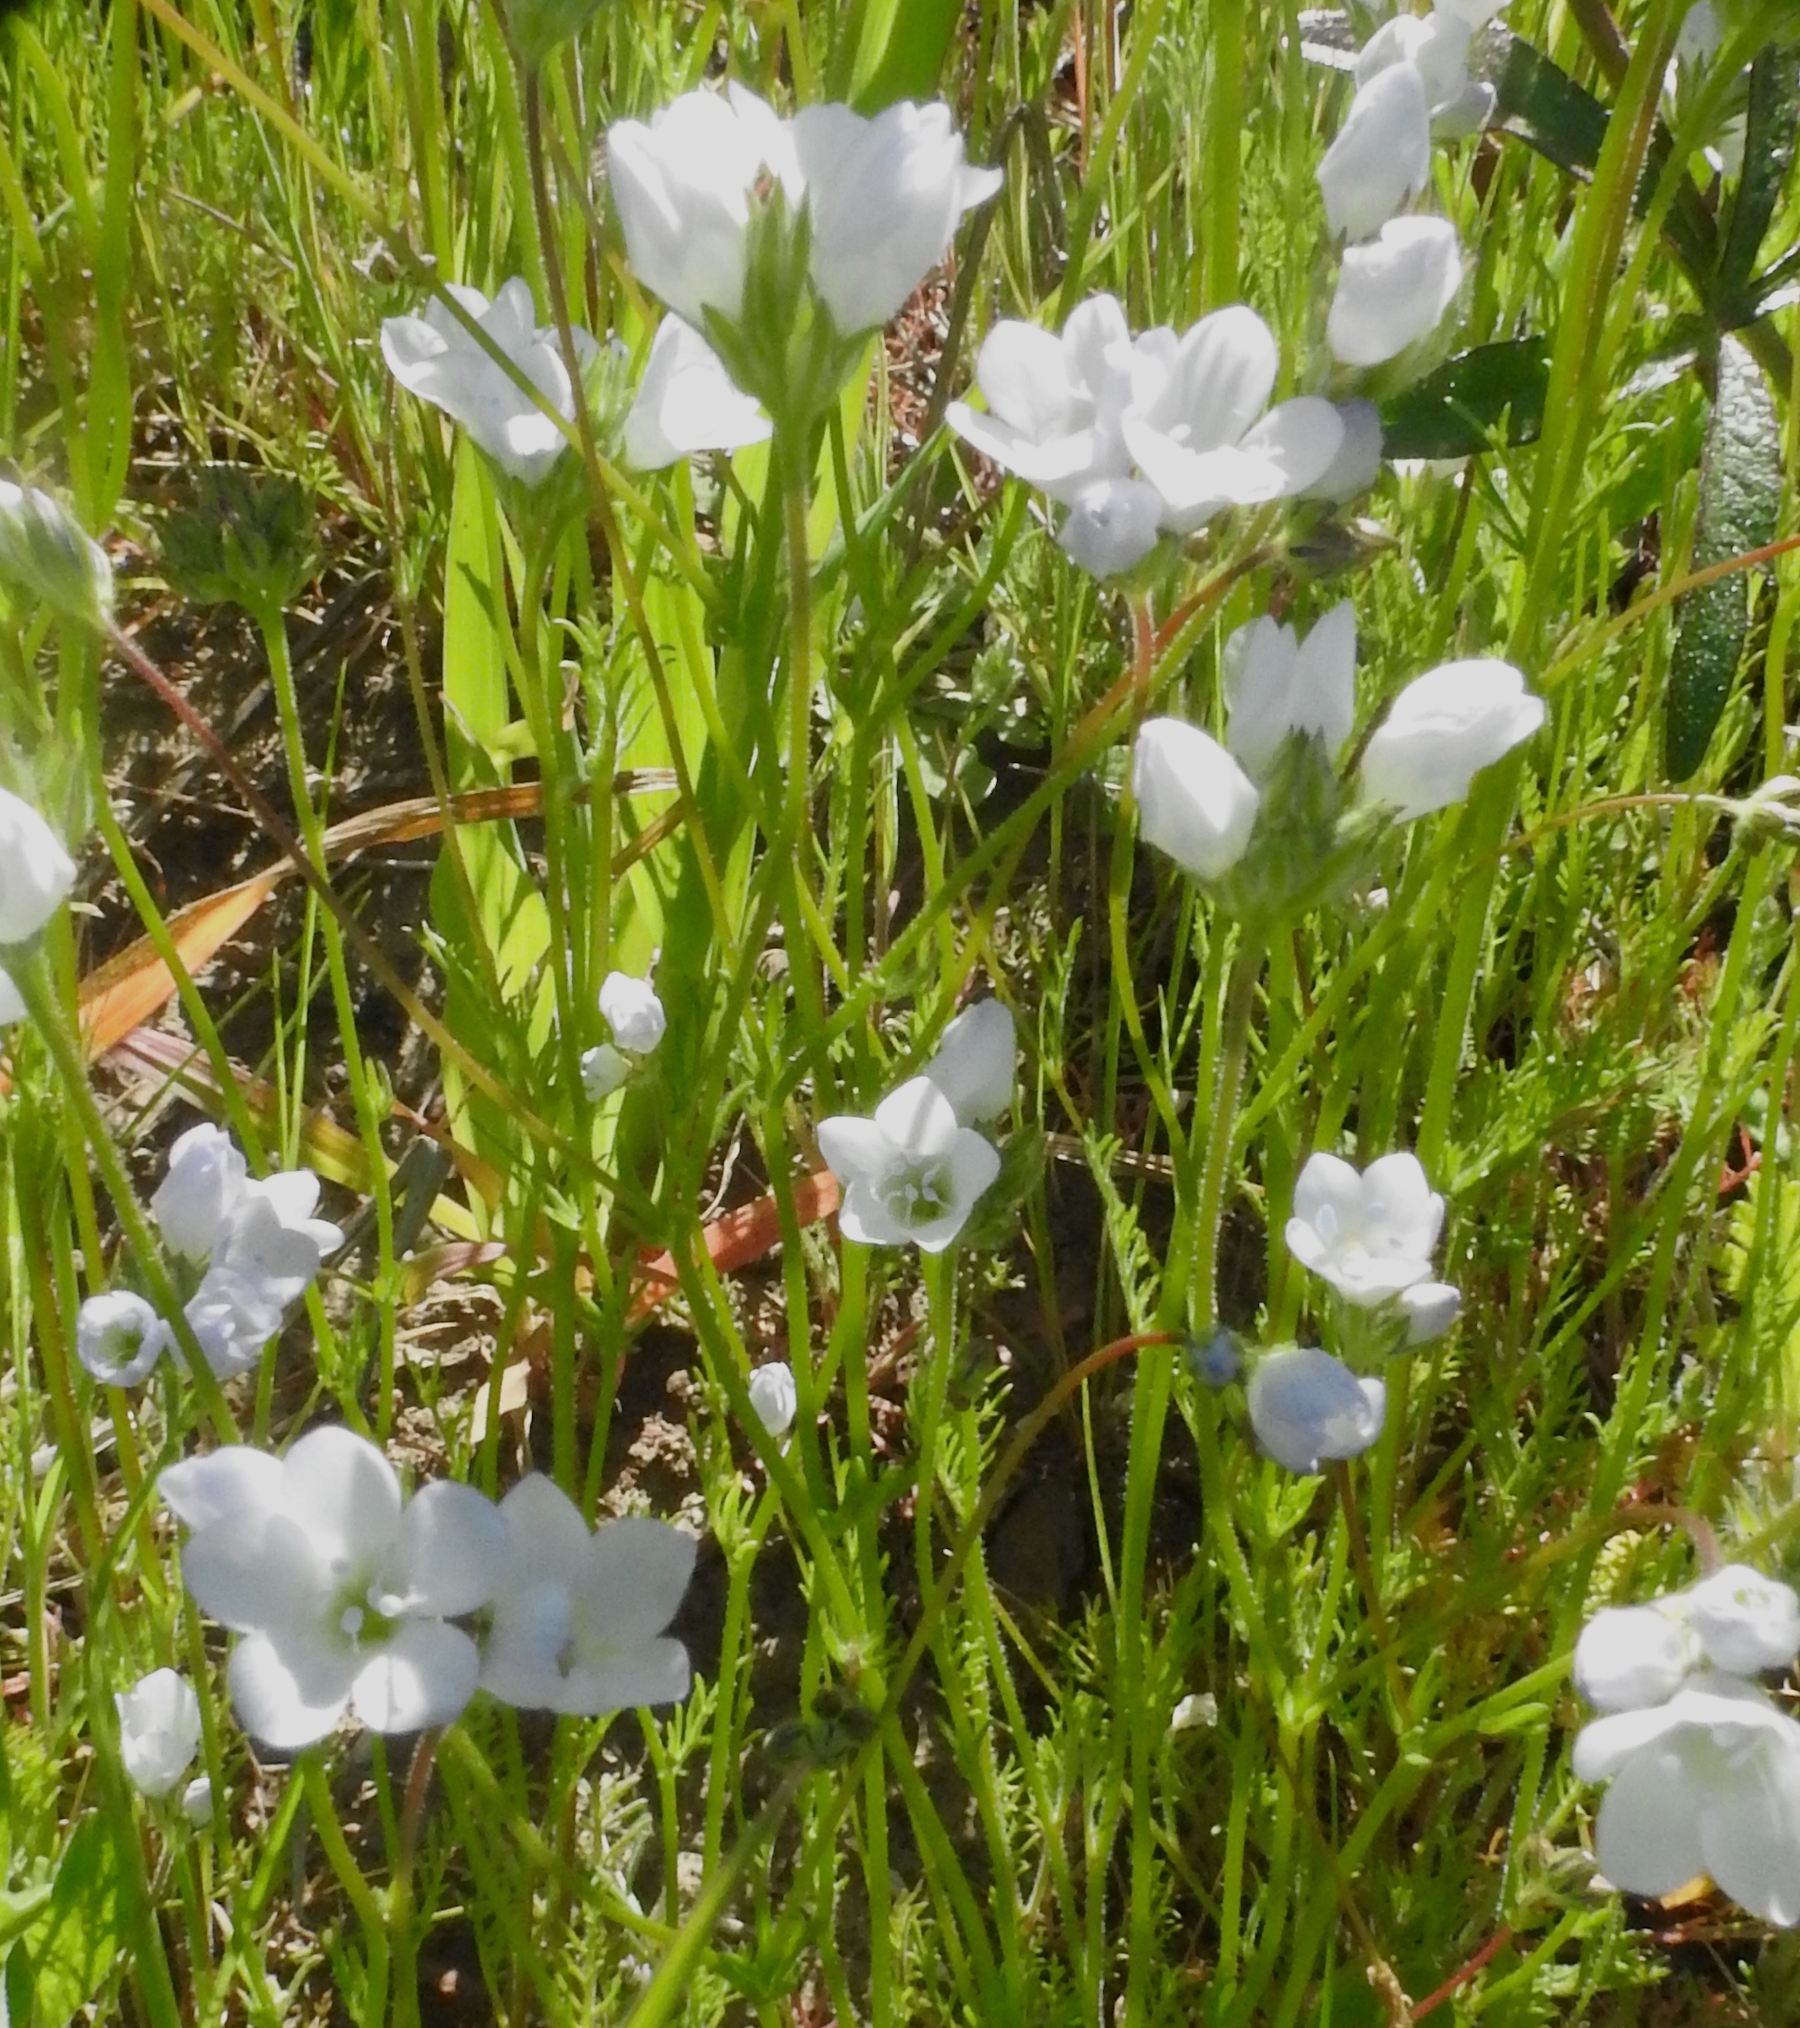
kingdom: Plantae
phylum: Tracheophyta
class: Magnoliopsida
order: Ericales
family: Polemoniaceae
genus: Gilia
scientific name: Gilia angelensis
